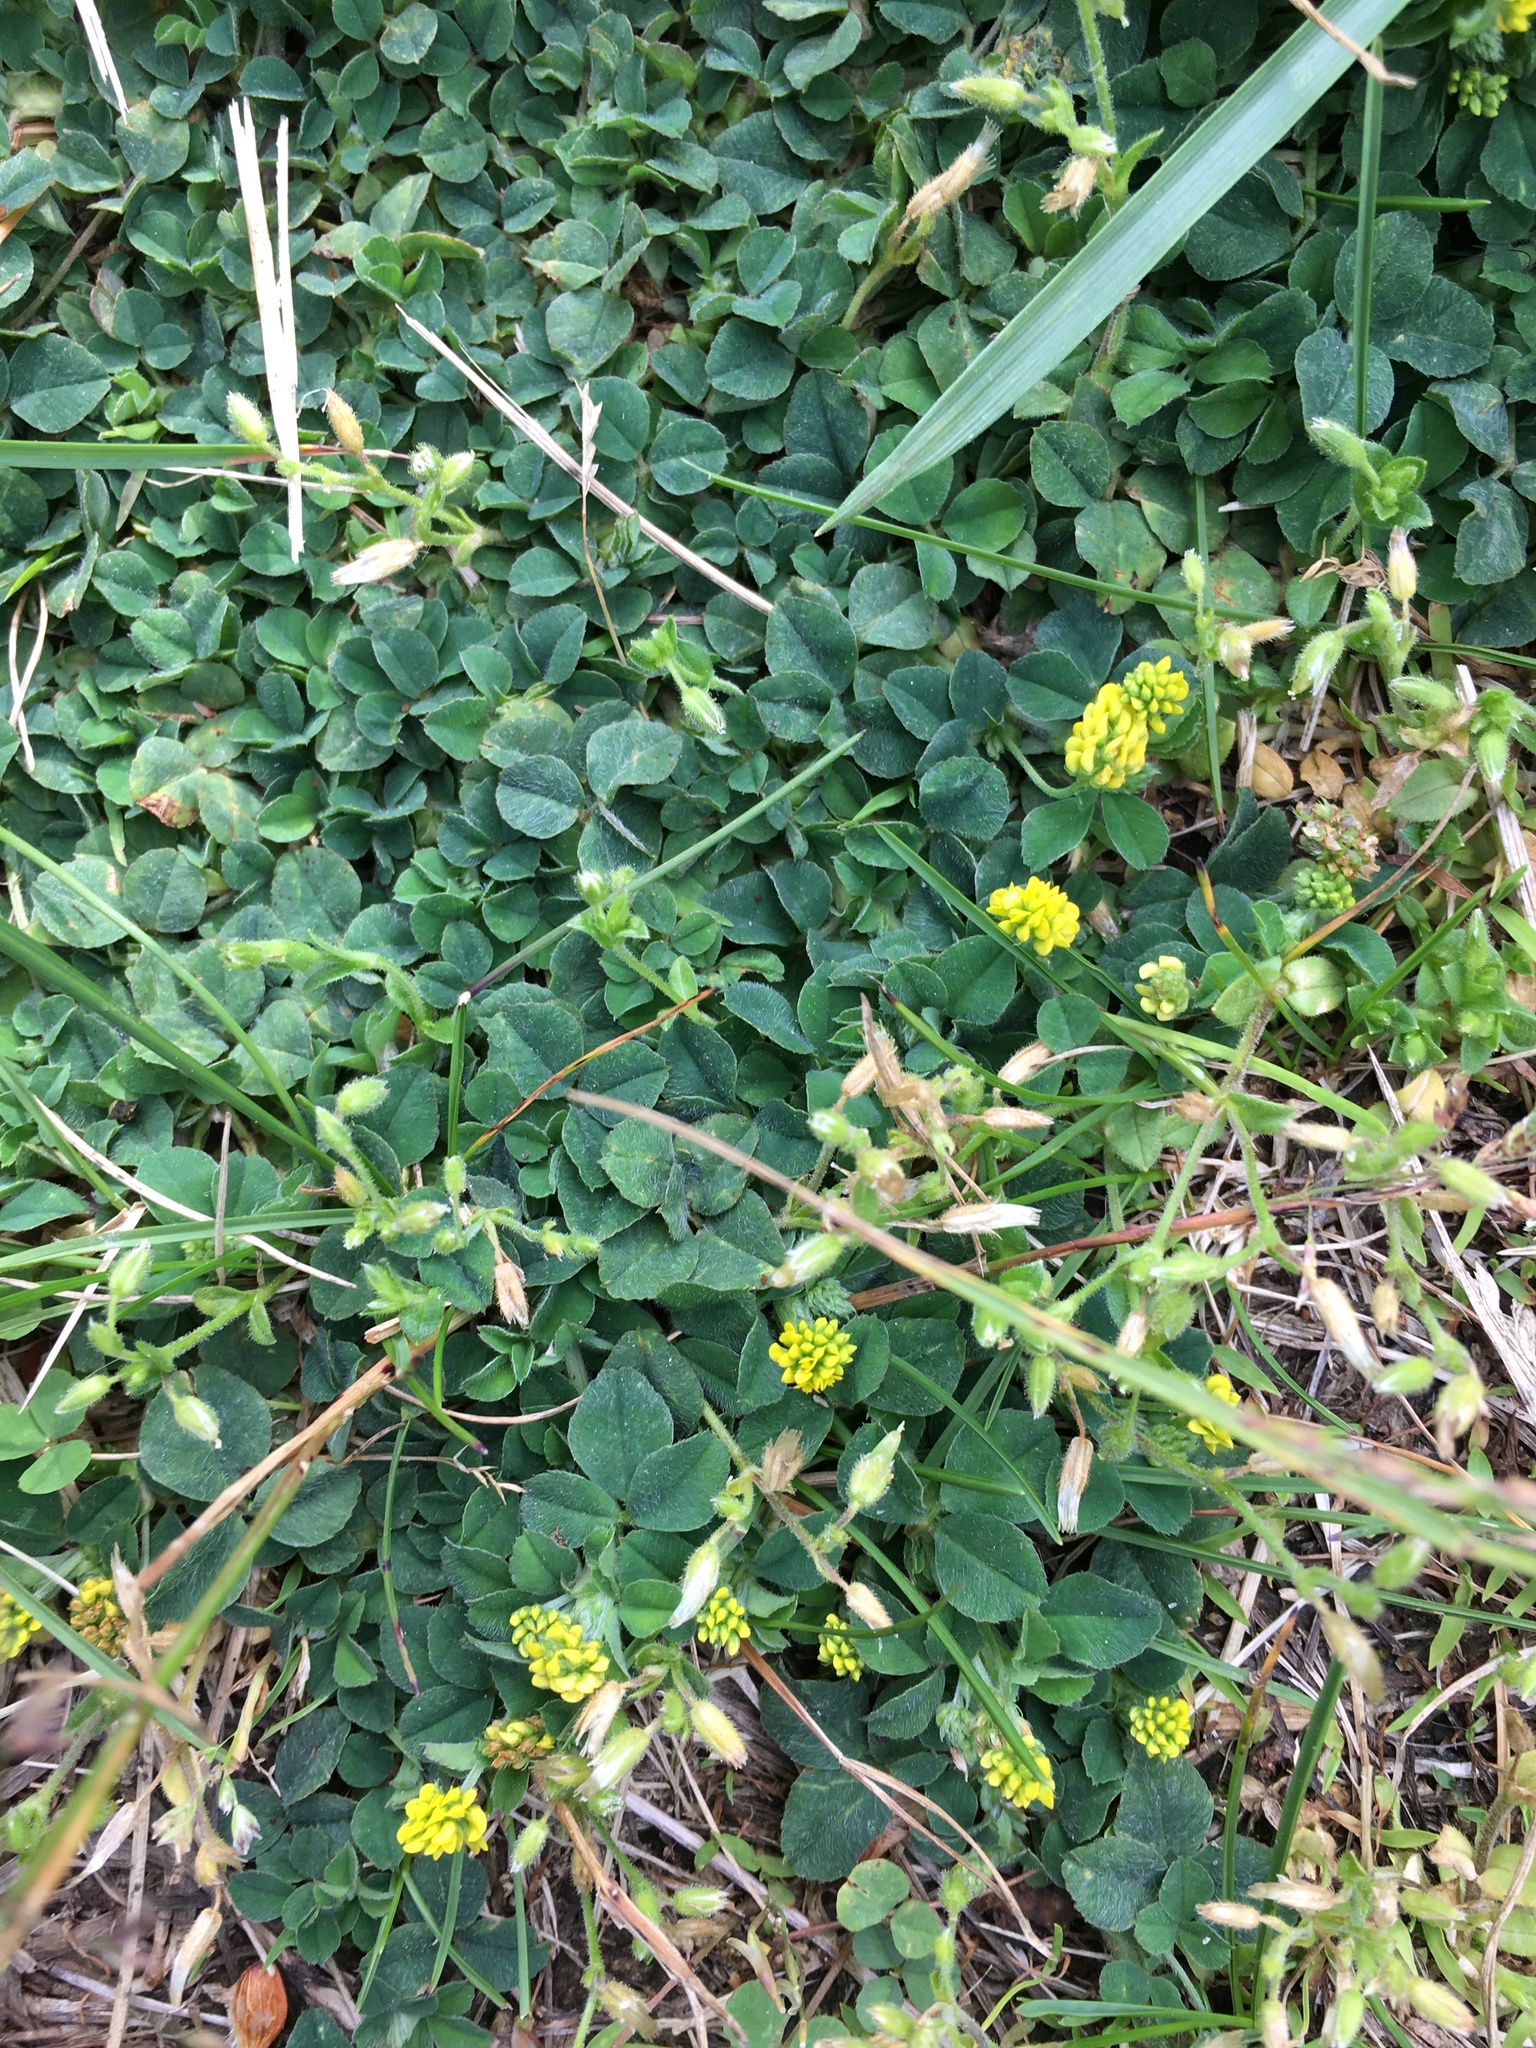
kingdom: Plantae
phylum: Tracheophyta
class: Magnoliopsida
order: Fabales
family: Fabaceae
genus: Medicago
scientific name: Medicago lupulina
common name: Black medick
